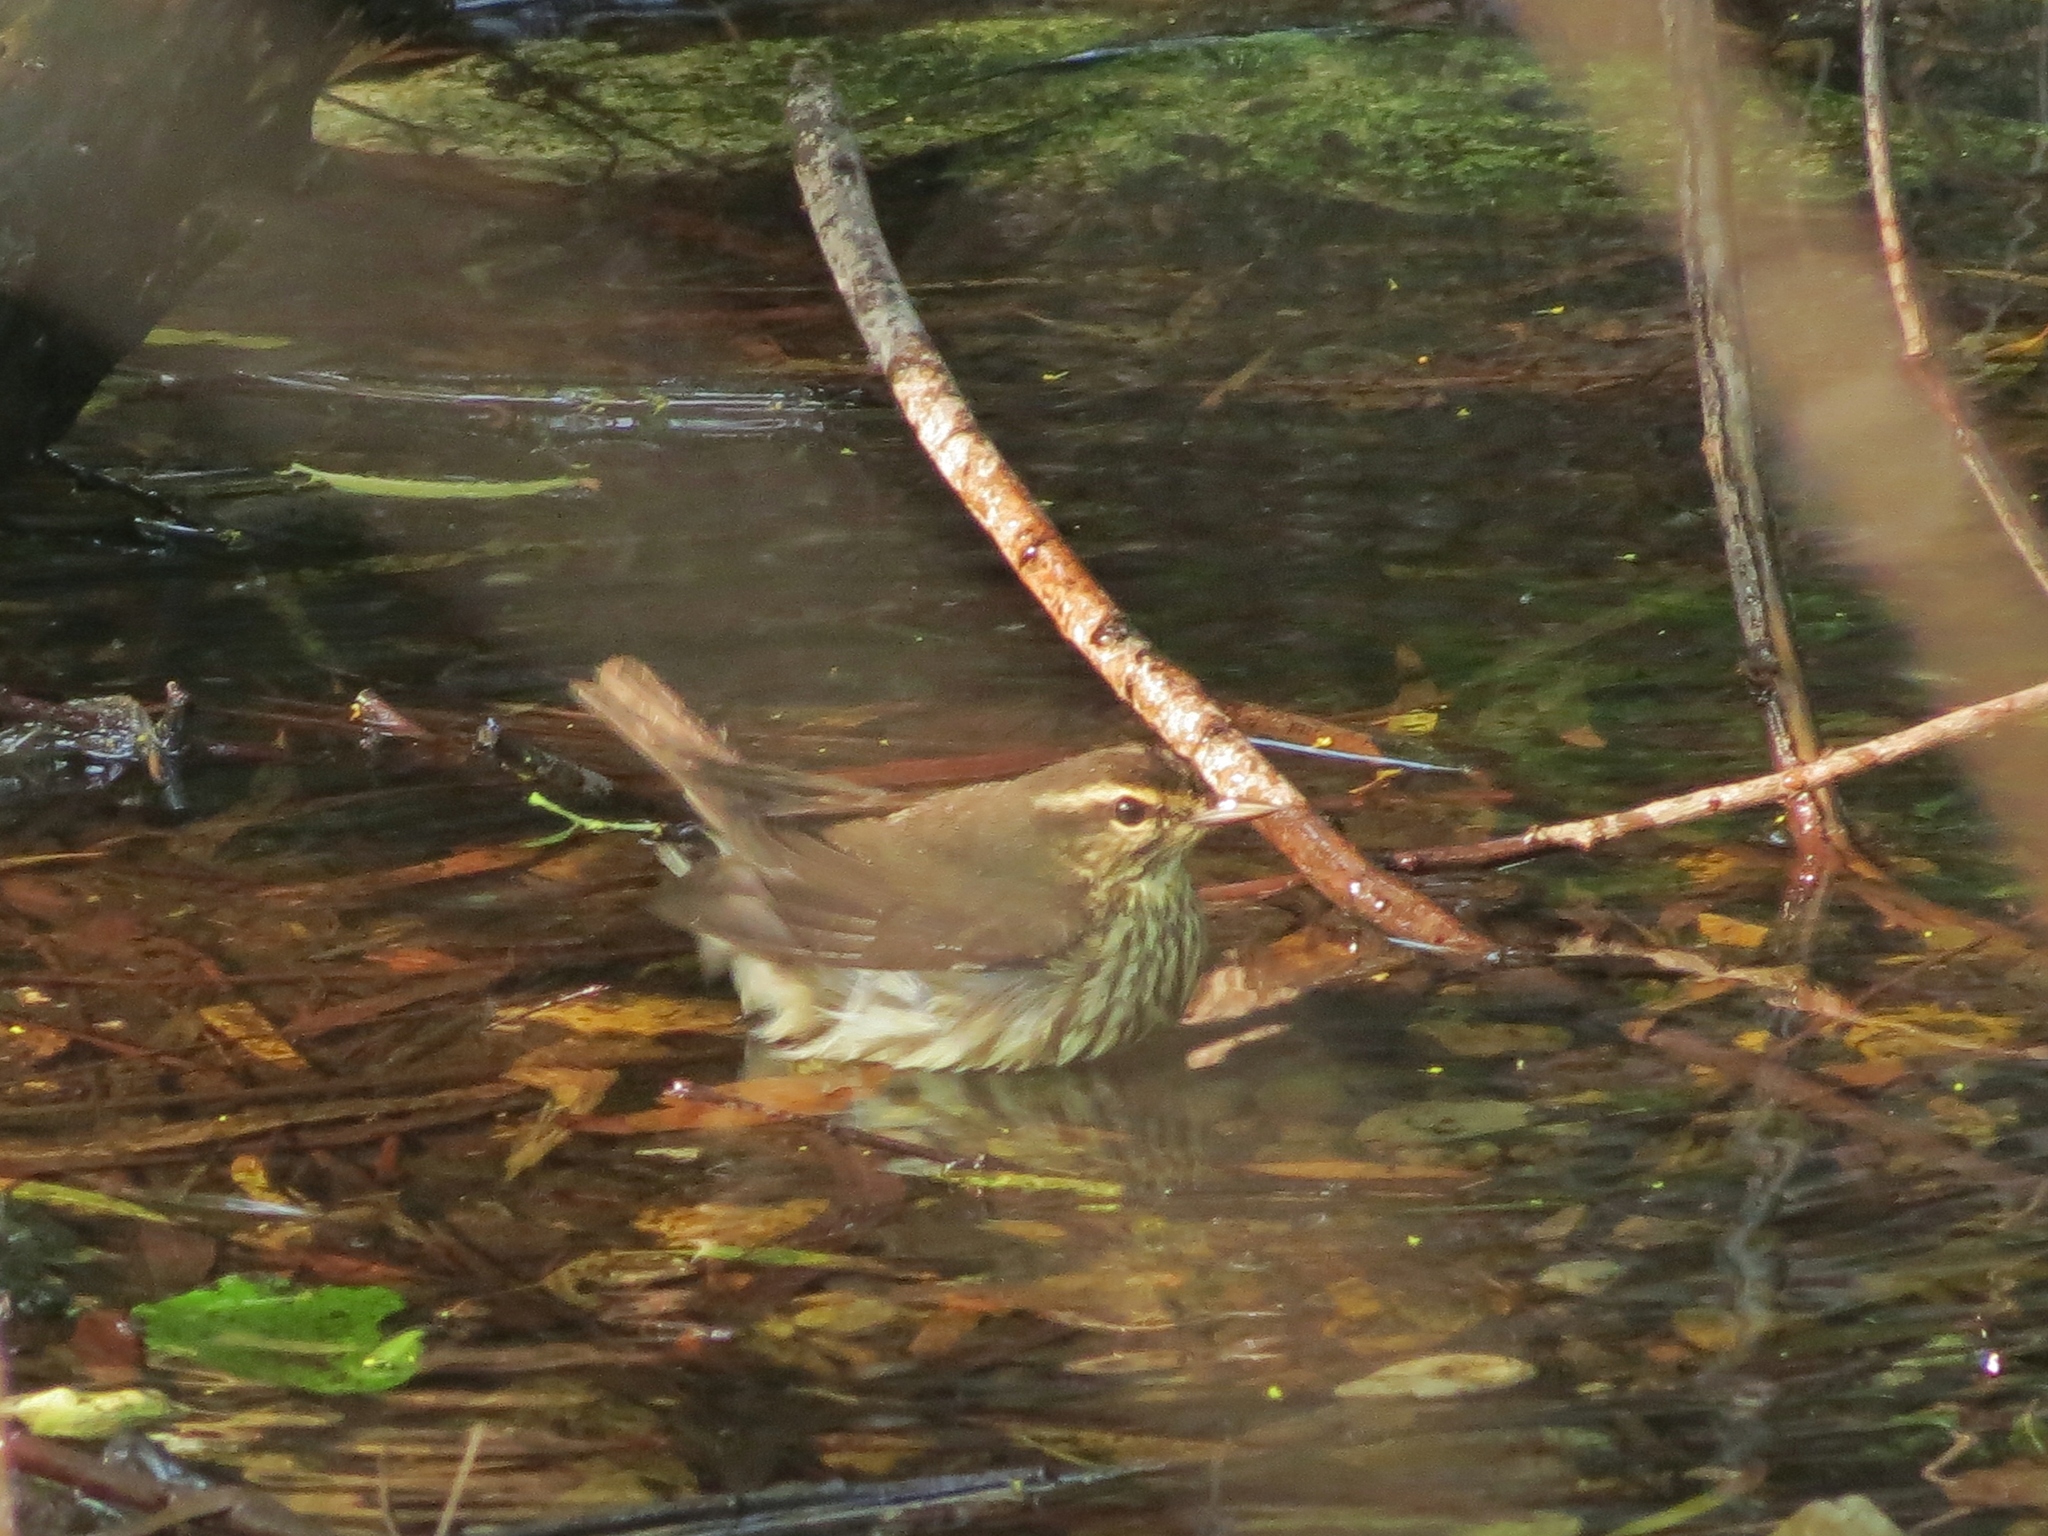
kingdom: Animalia
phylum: Chordata
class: Aves
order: Passeriformes
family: Parulidae
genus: Parkesia
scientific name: Parkesia noveboracensis
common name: Northern waterthrush
